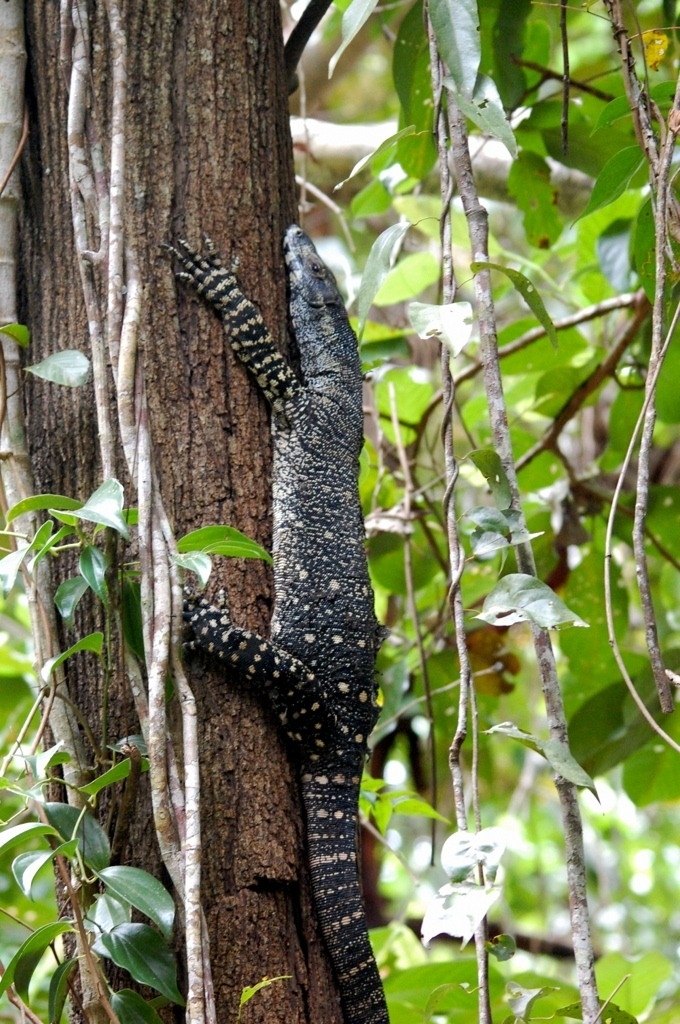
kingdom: Animalia
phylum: Chordata
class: Squamata
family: Varanidae
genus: Varanus
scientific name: Varanus varius
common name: Lace monitor
